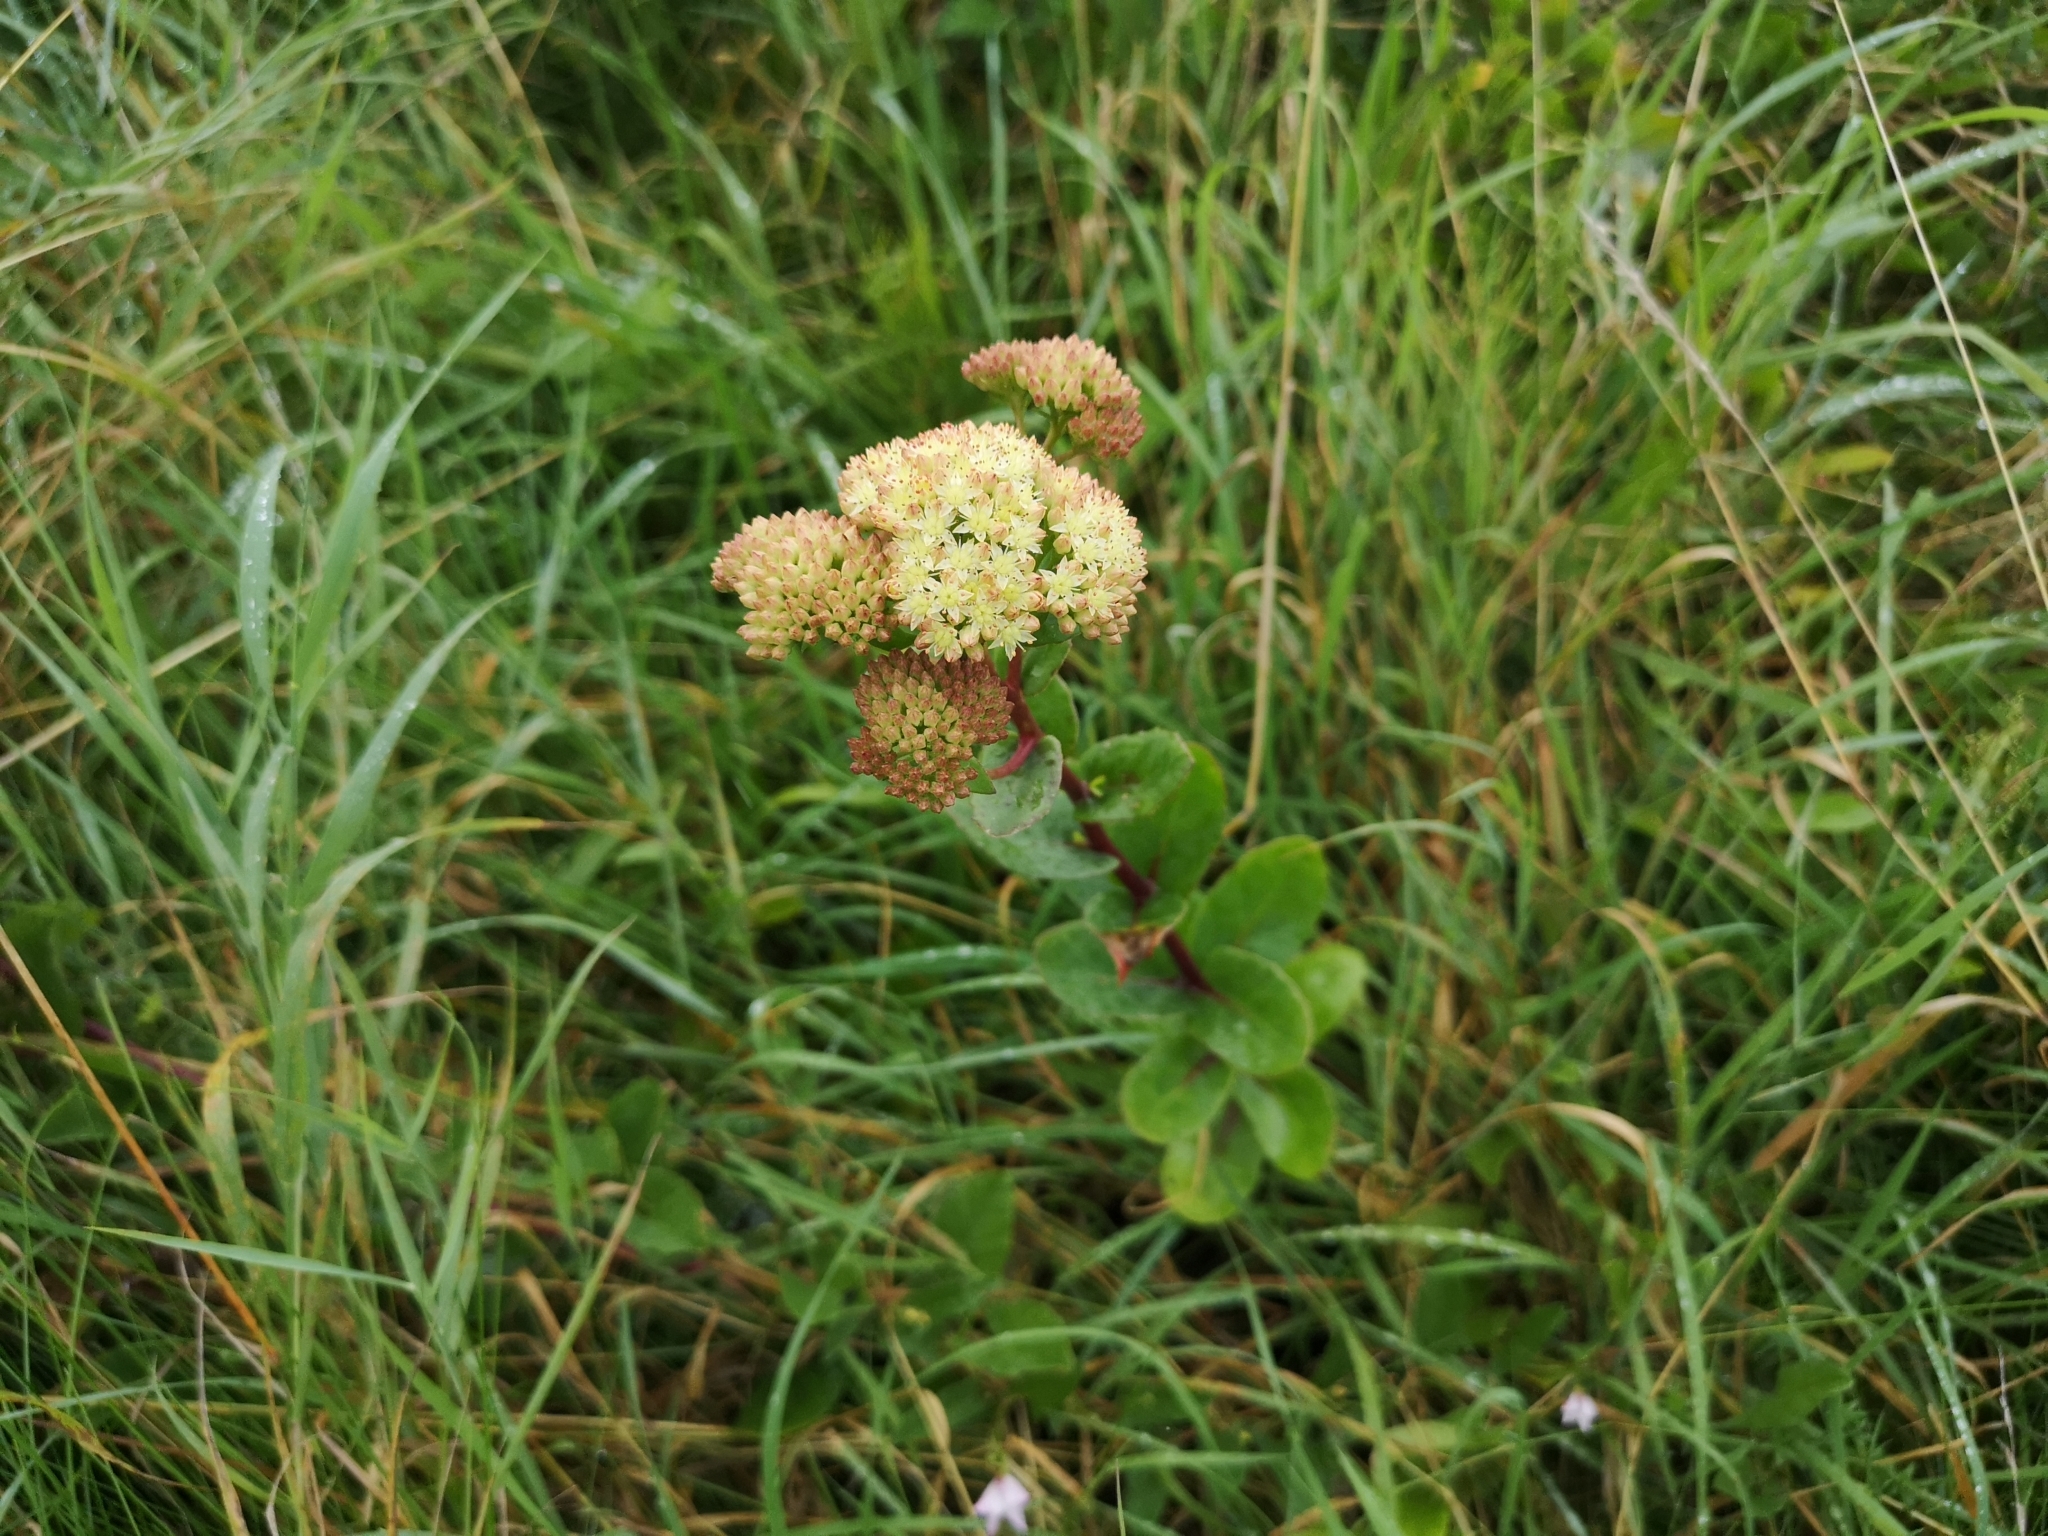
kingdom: Plantae
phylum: Tracheophyta
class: Magnoliopsida
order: Saxifragales
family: Crassulaceae
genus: Hylotelephium
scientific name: Hylotelephium telephium
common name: Live-forever
